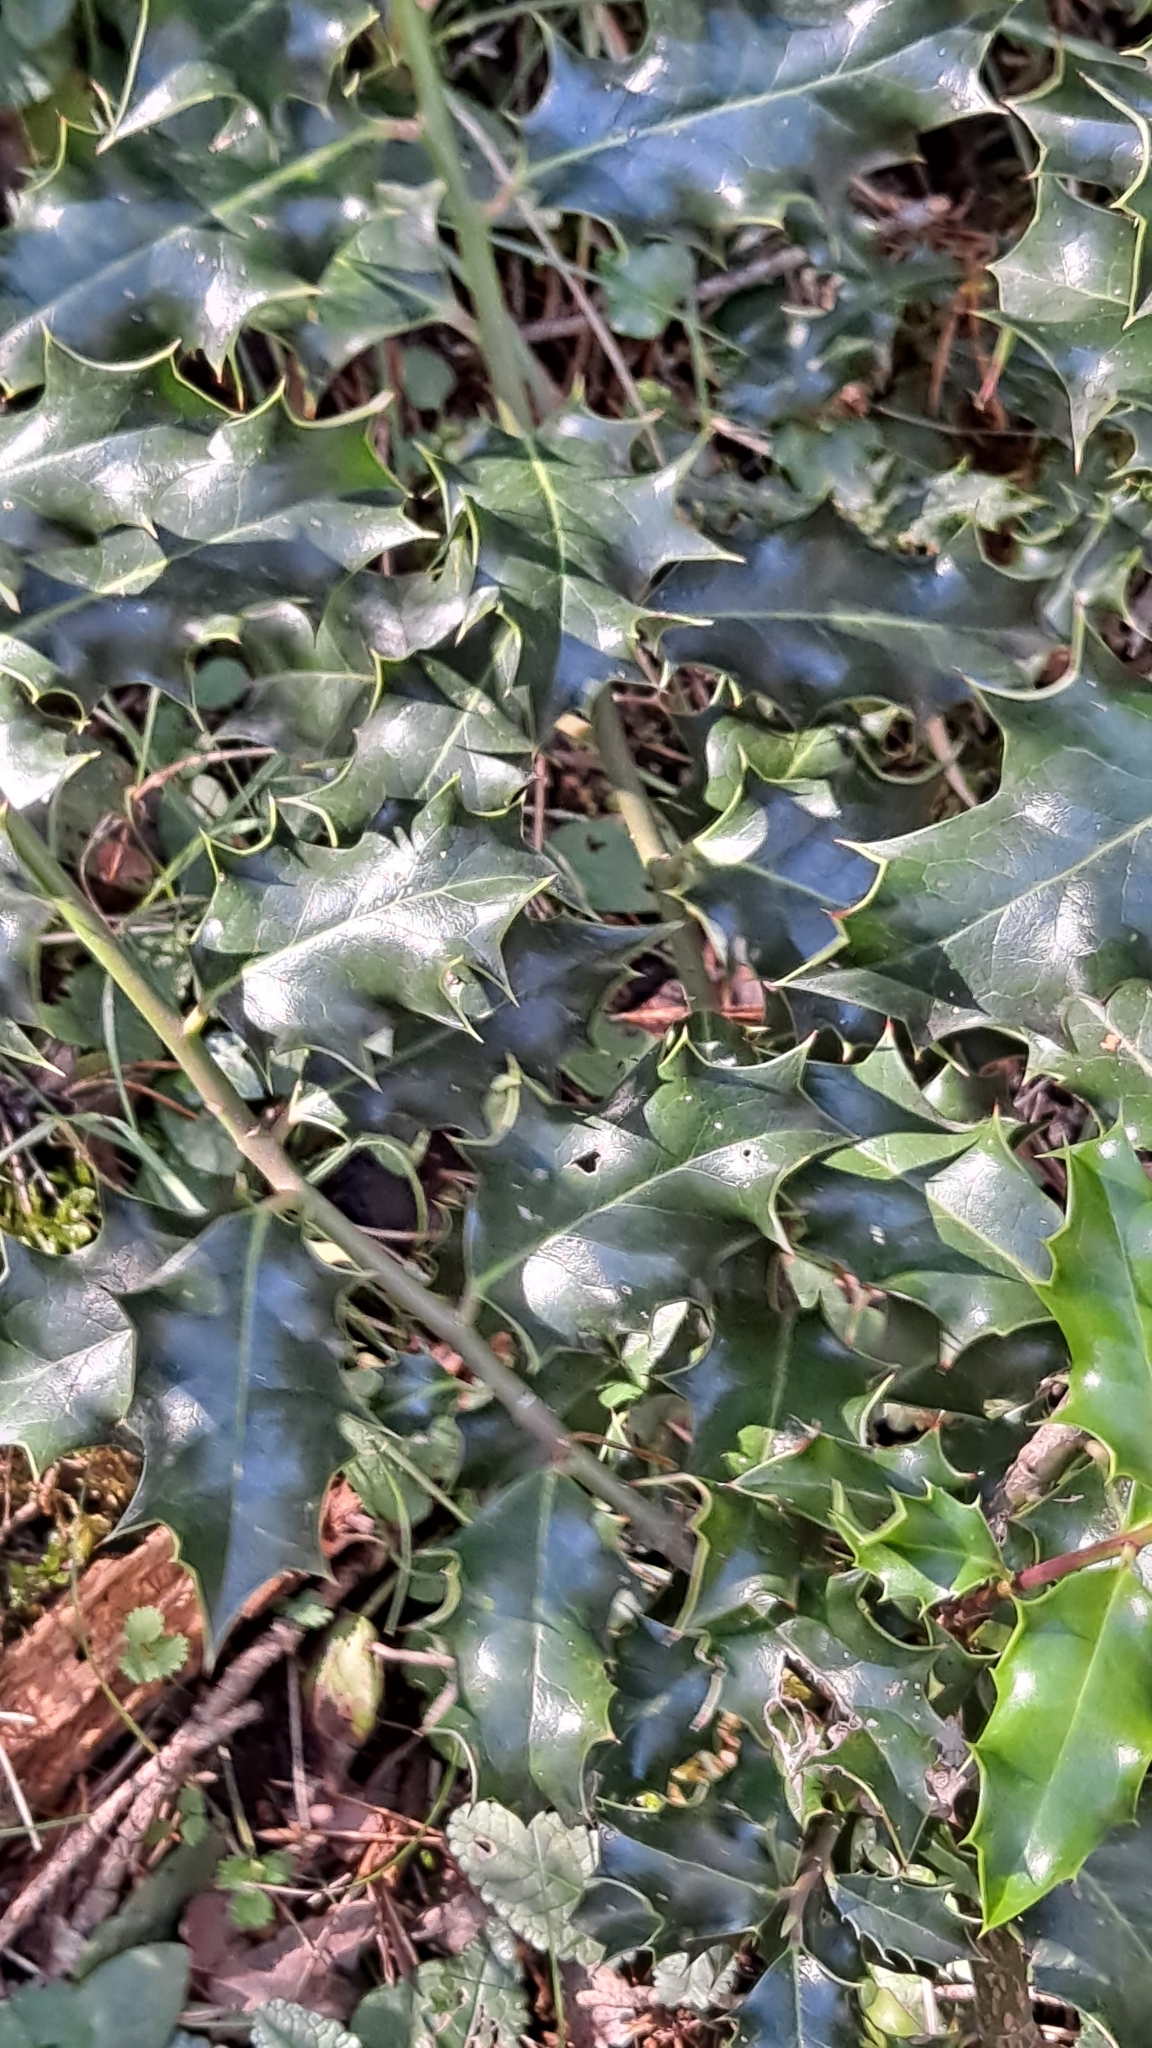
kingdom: Plantae
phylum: Tracheophyta
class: Magnoliopsida
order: Aquifoliales
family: Aquifoliaceae
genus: Ilex
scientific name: Ilex aquifolium
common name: English holly
